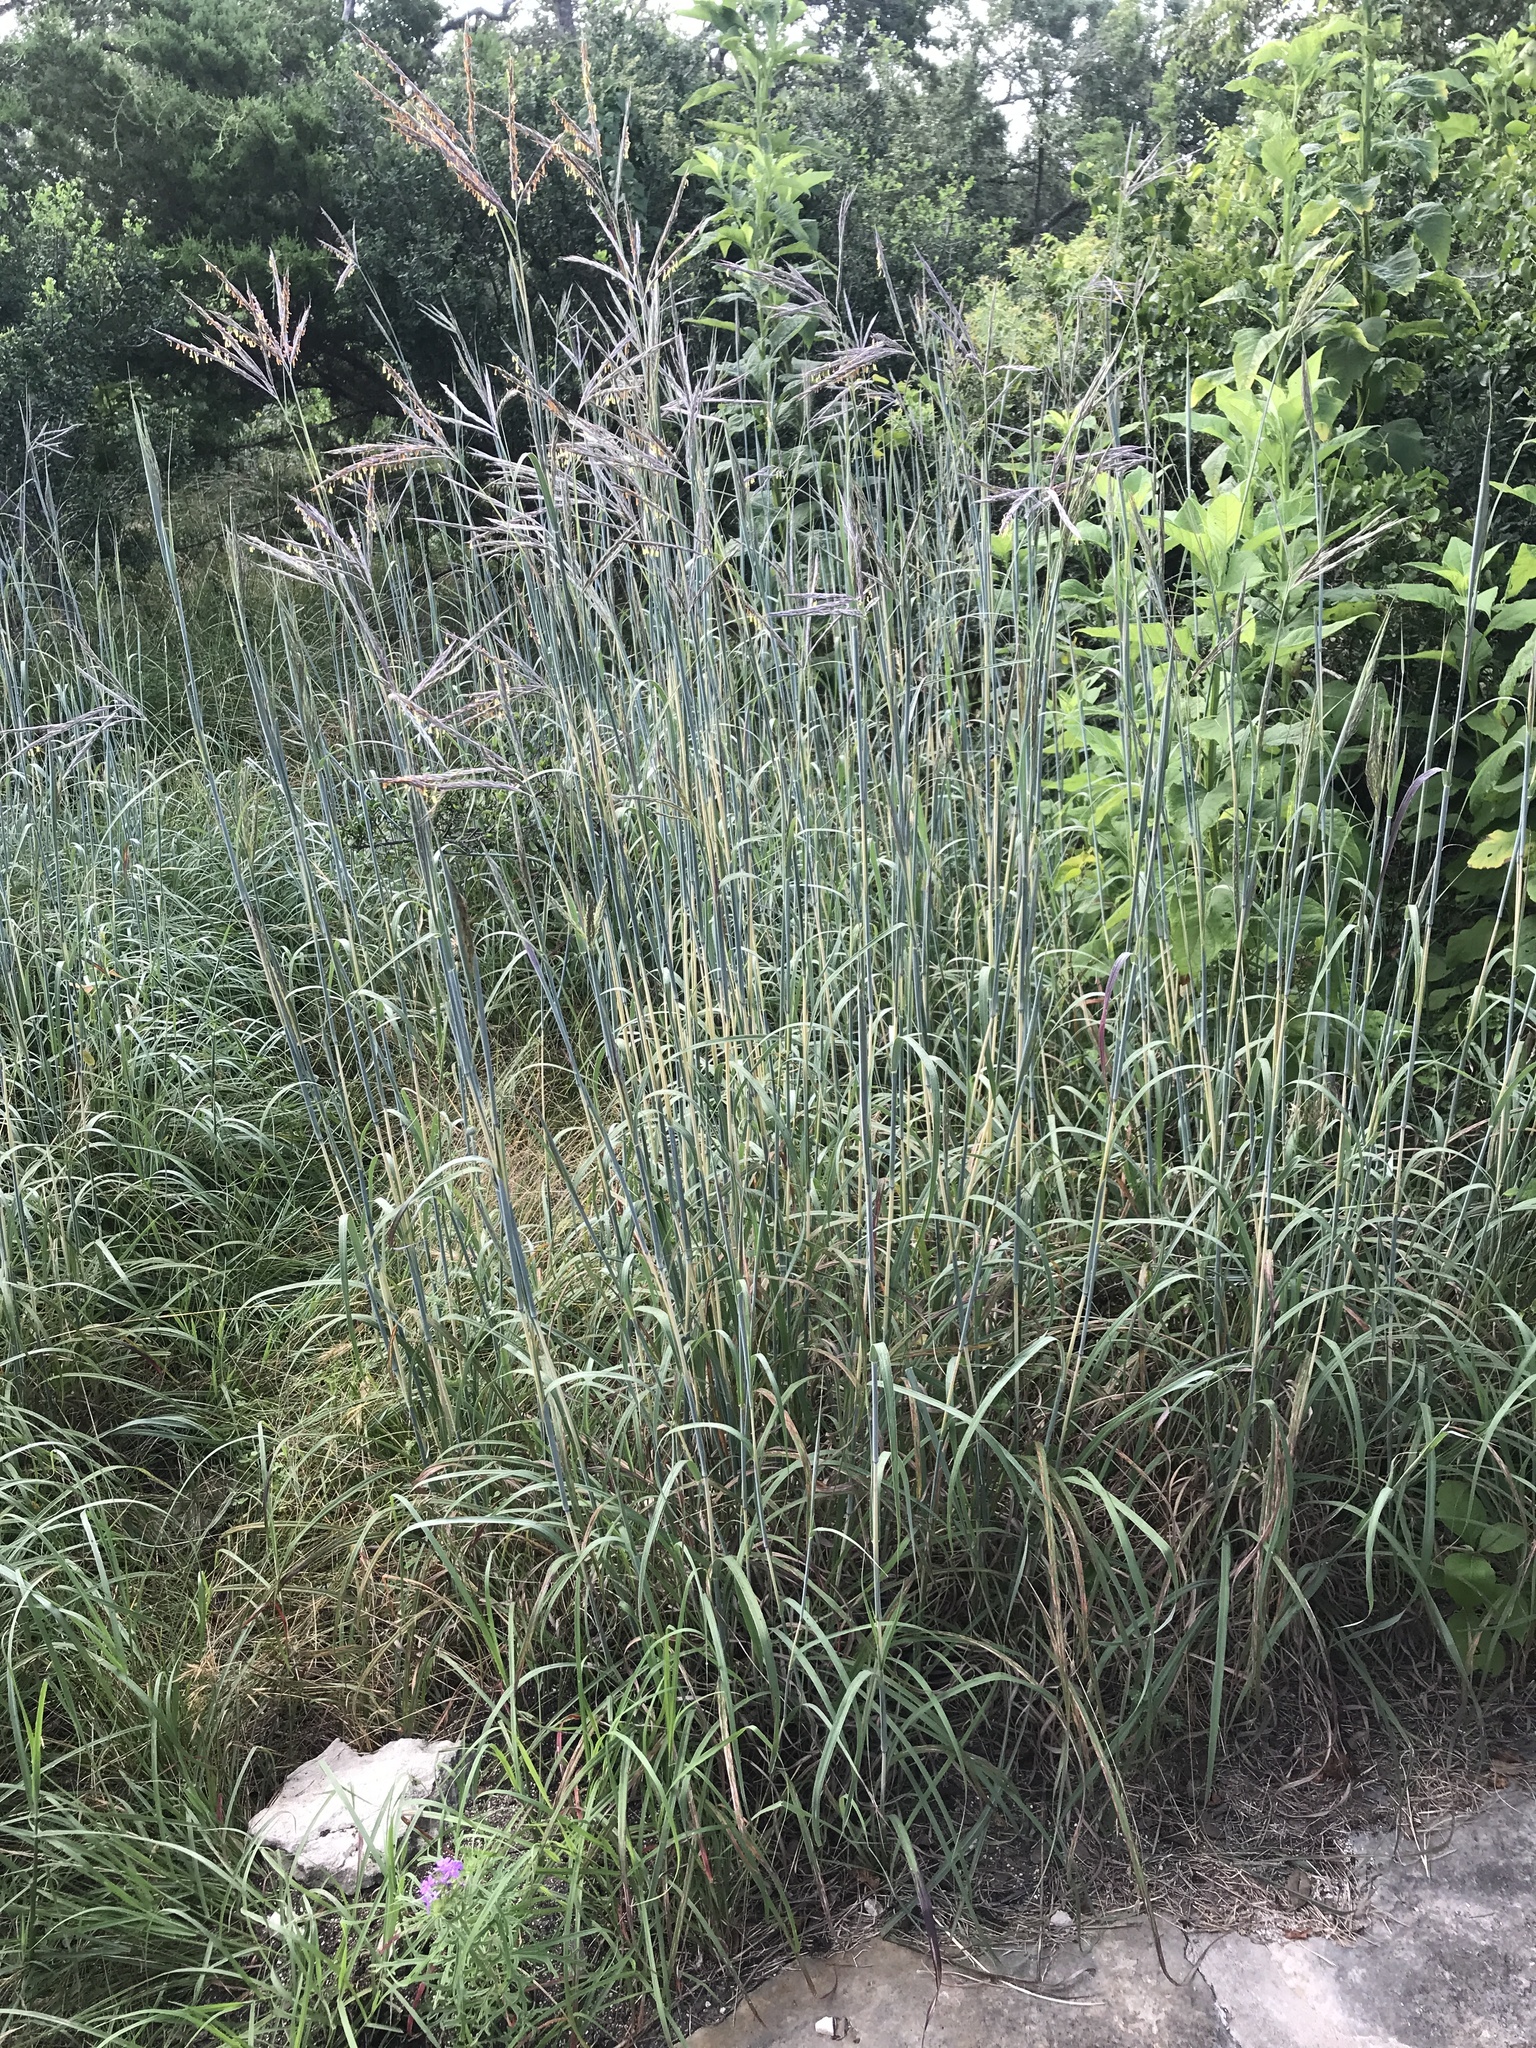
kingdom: Plantae
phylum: Tracheophyta
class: Liliopsida
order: Poales
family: Poaceae
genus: Andropogon
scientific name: Andropogon gerardi
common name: Big bluestem
